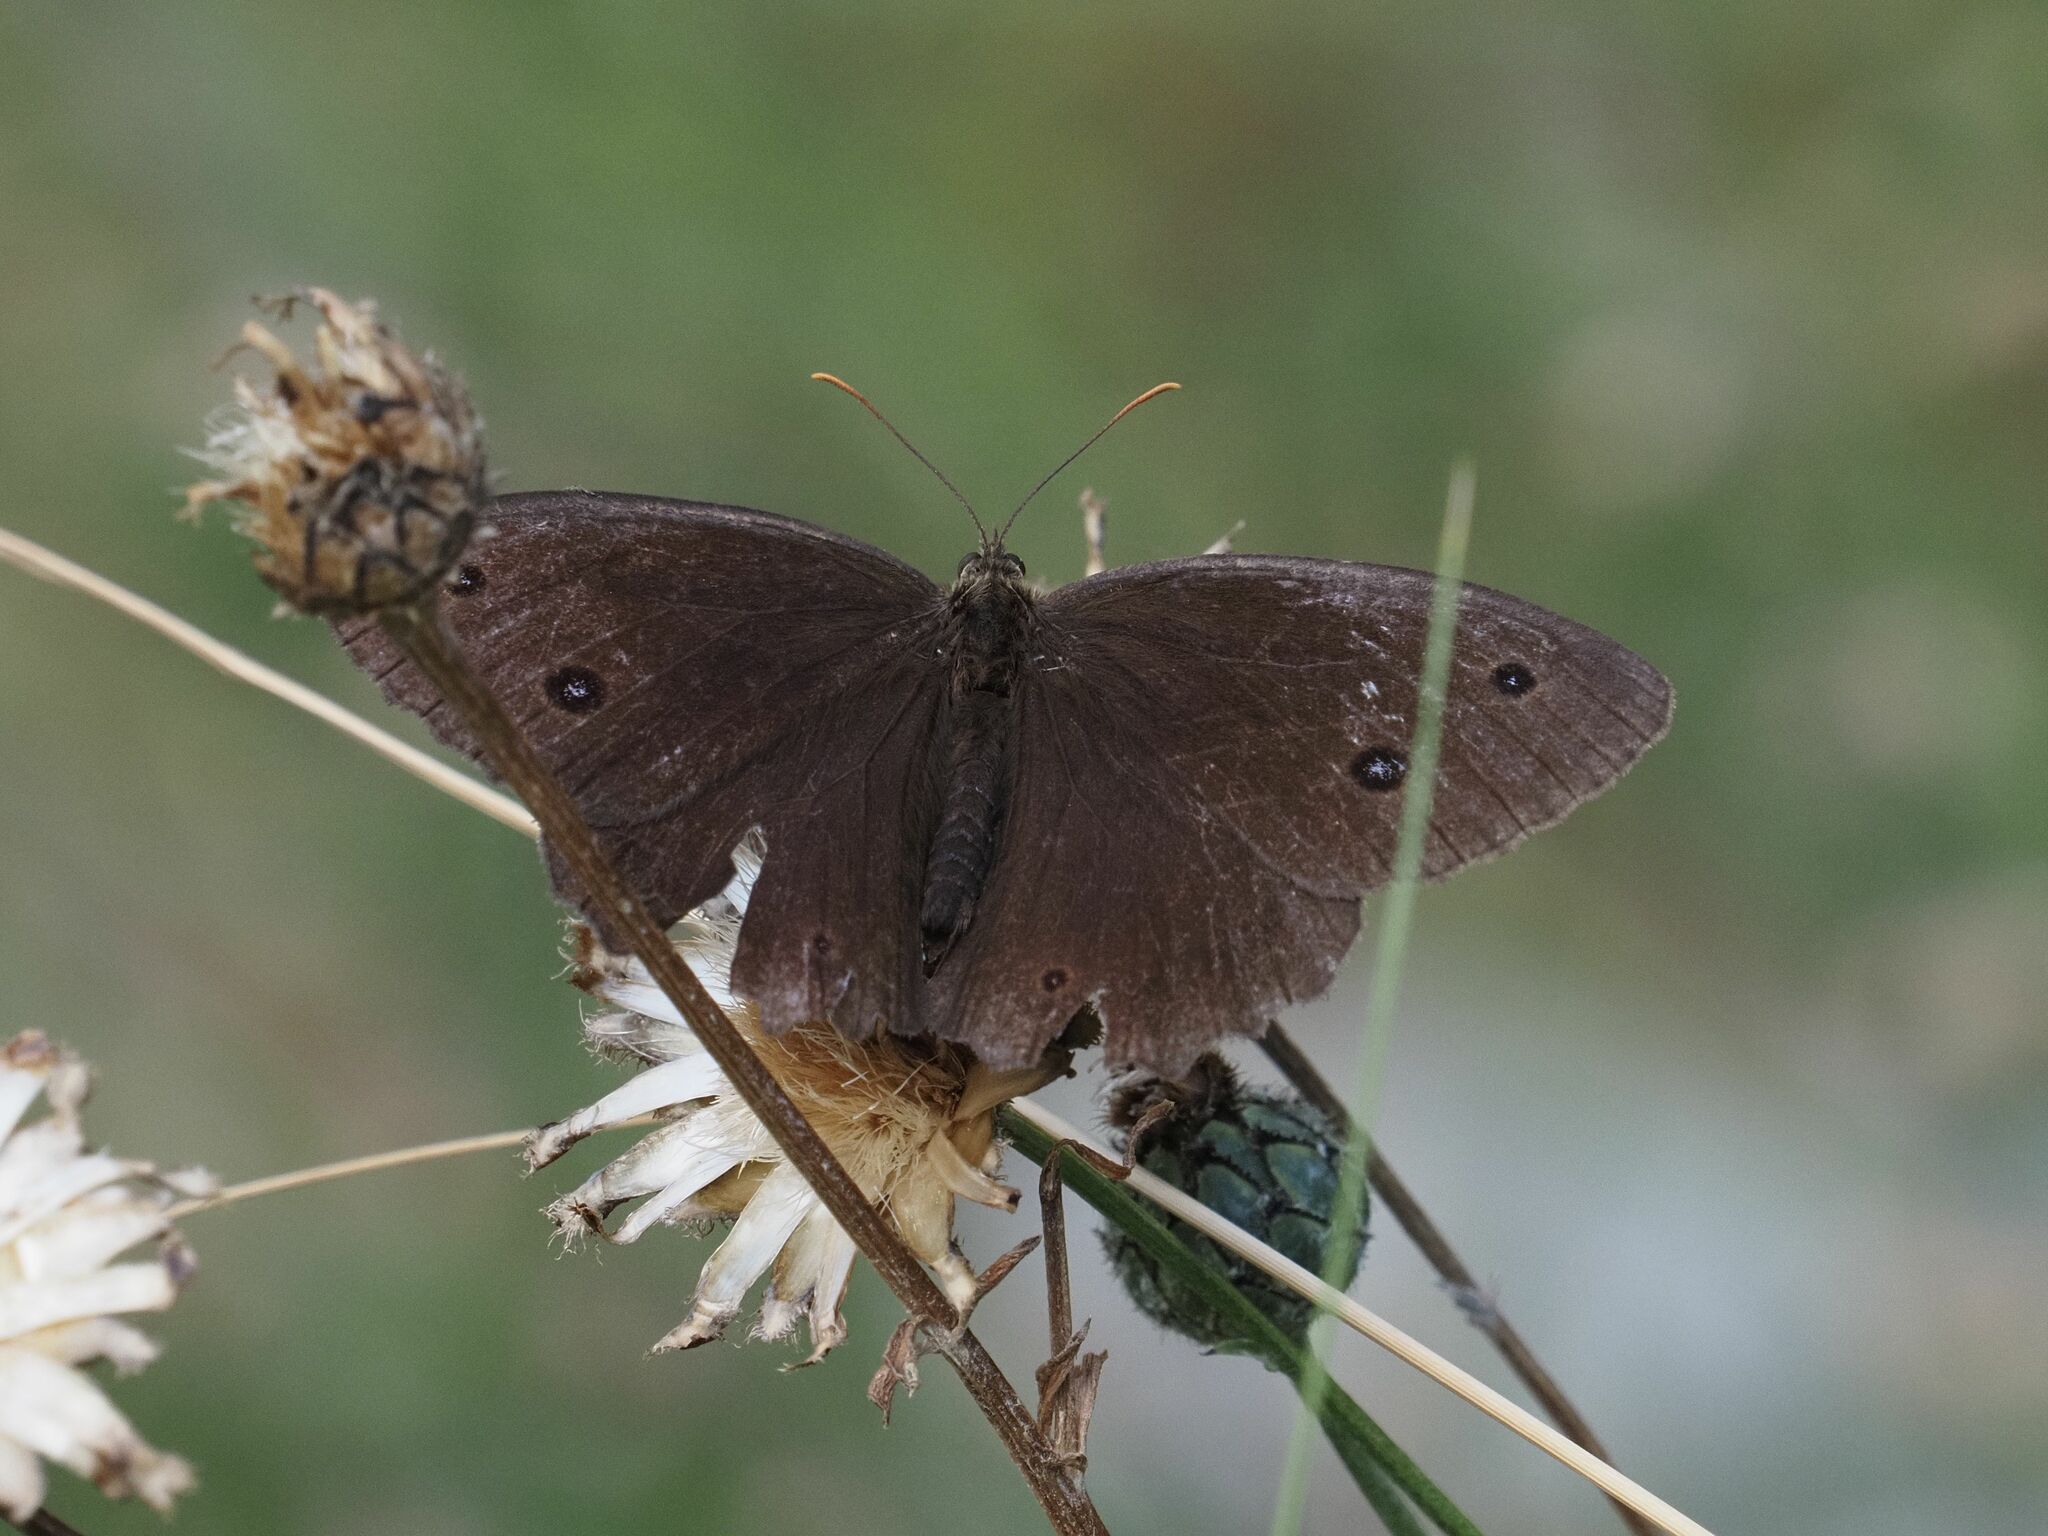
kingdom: Animalia
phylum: Arthropoda
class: Insecta
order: Lepidoptera
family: Nymphalidae
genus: Minois
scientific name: Minois dryas
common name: Dryad
